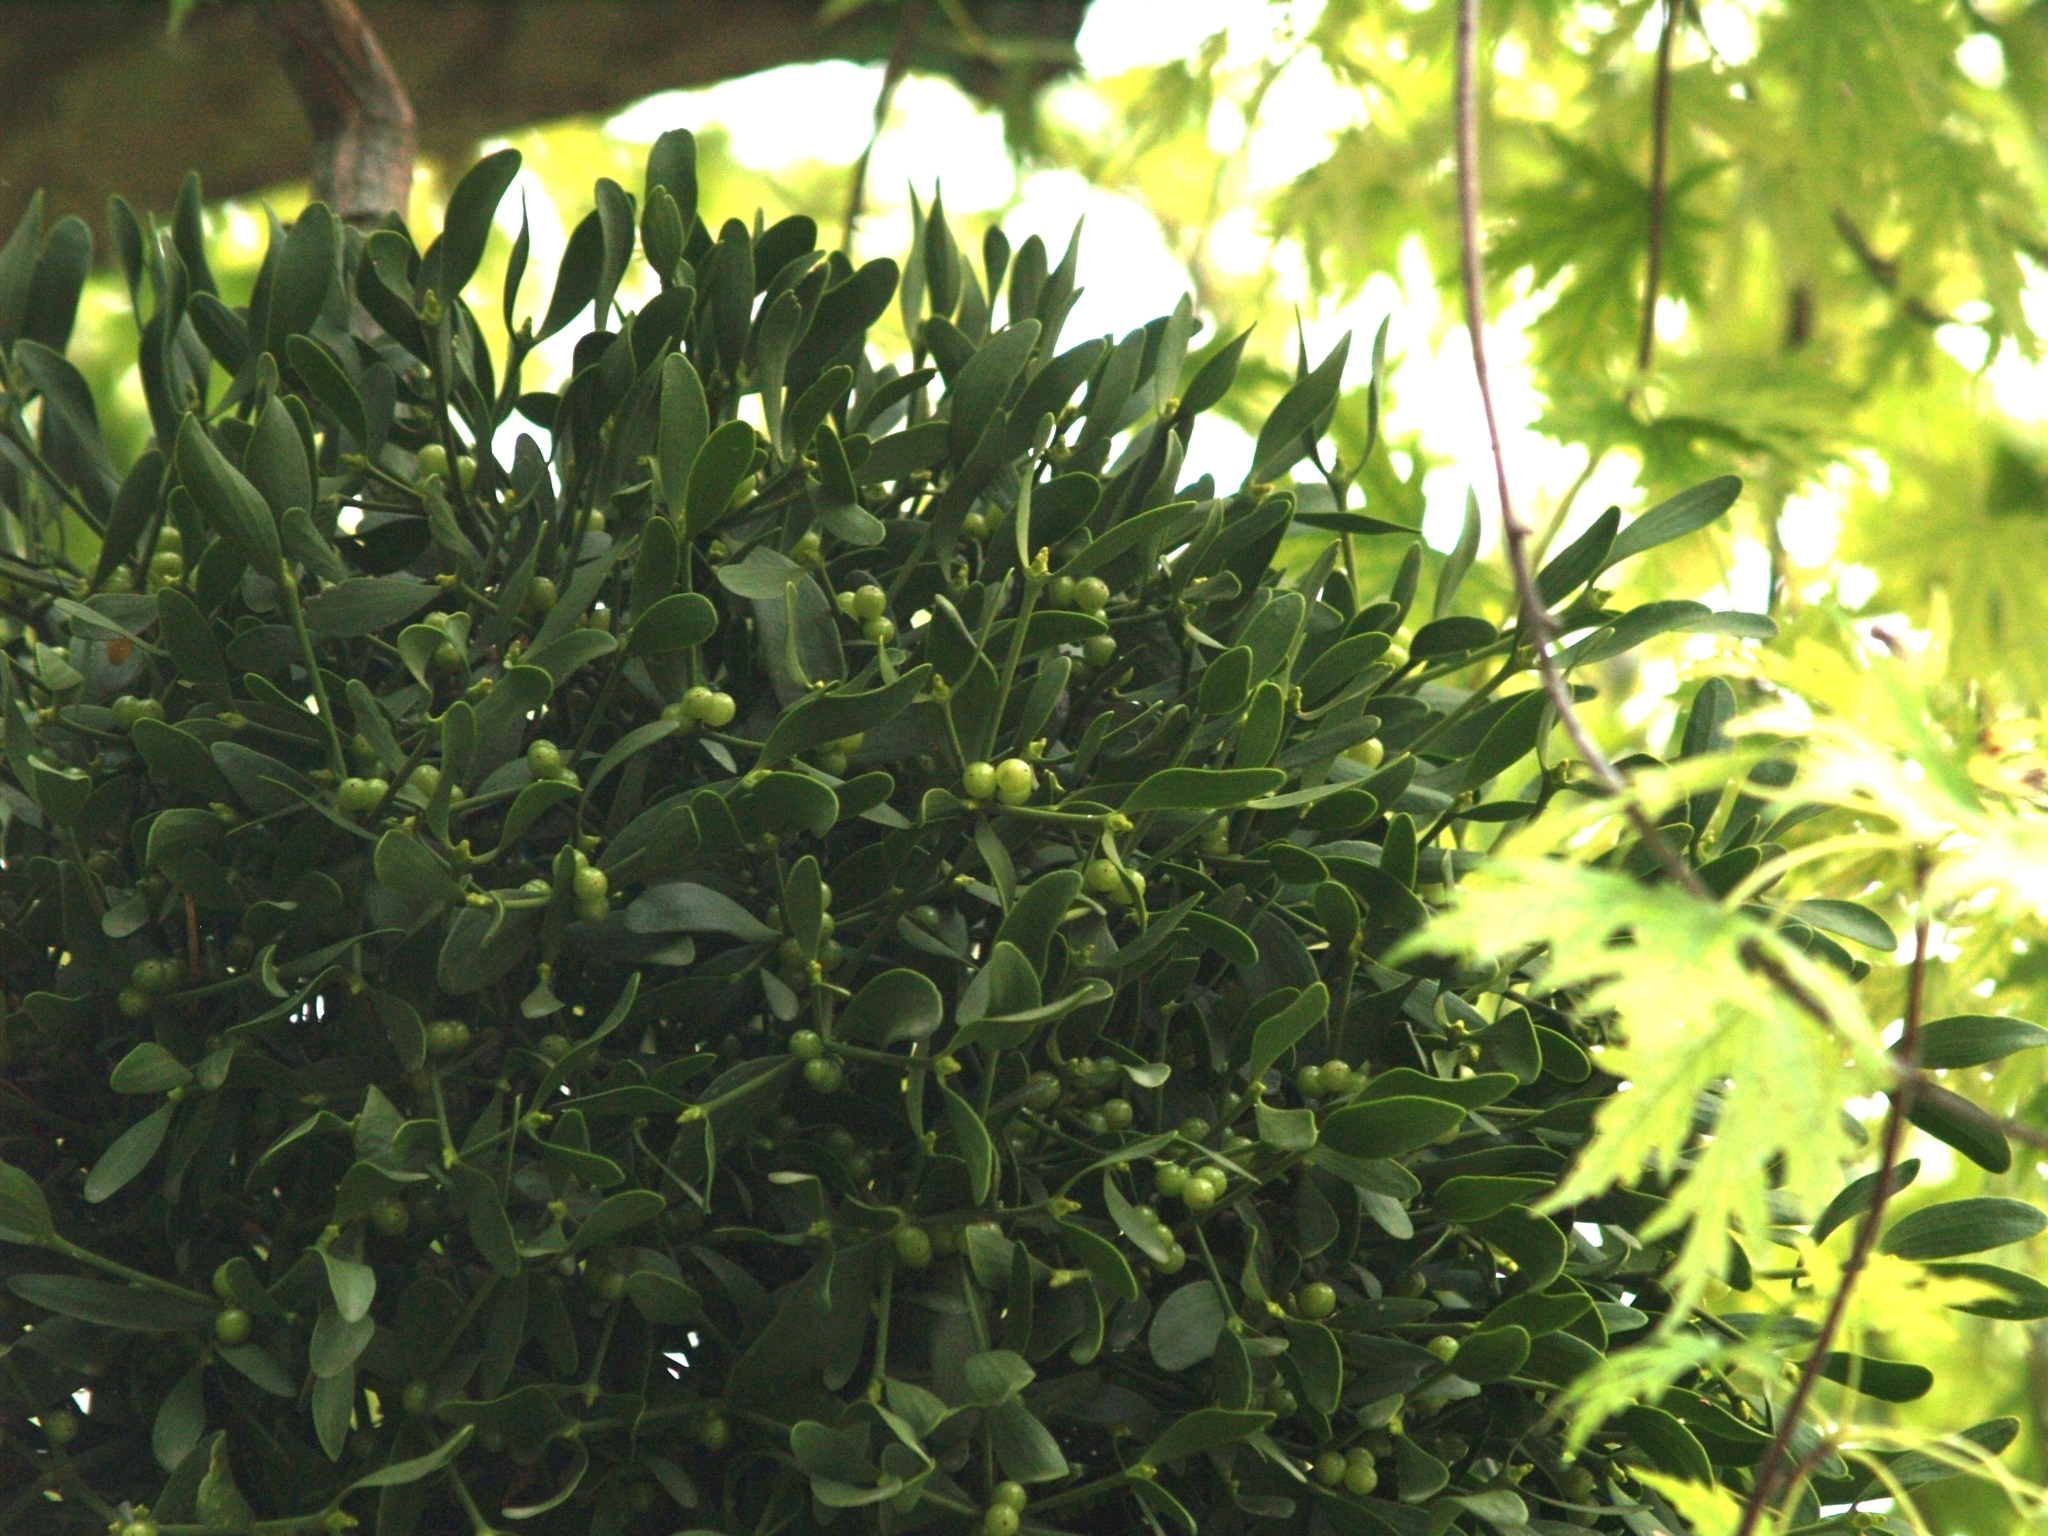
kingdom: Plantae
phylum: Tracheophyta
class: Magnoliopsida
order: Santalales
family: Viscaceae
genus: Viscum
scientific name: Viscum album
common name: Mistletoe
